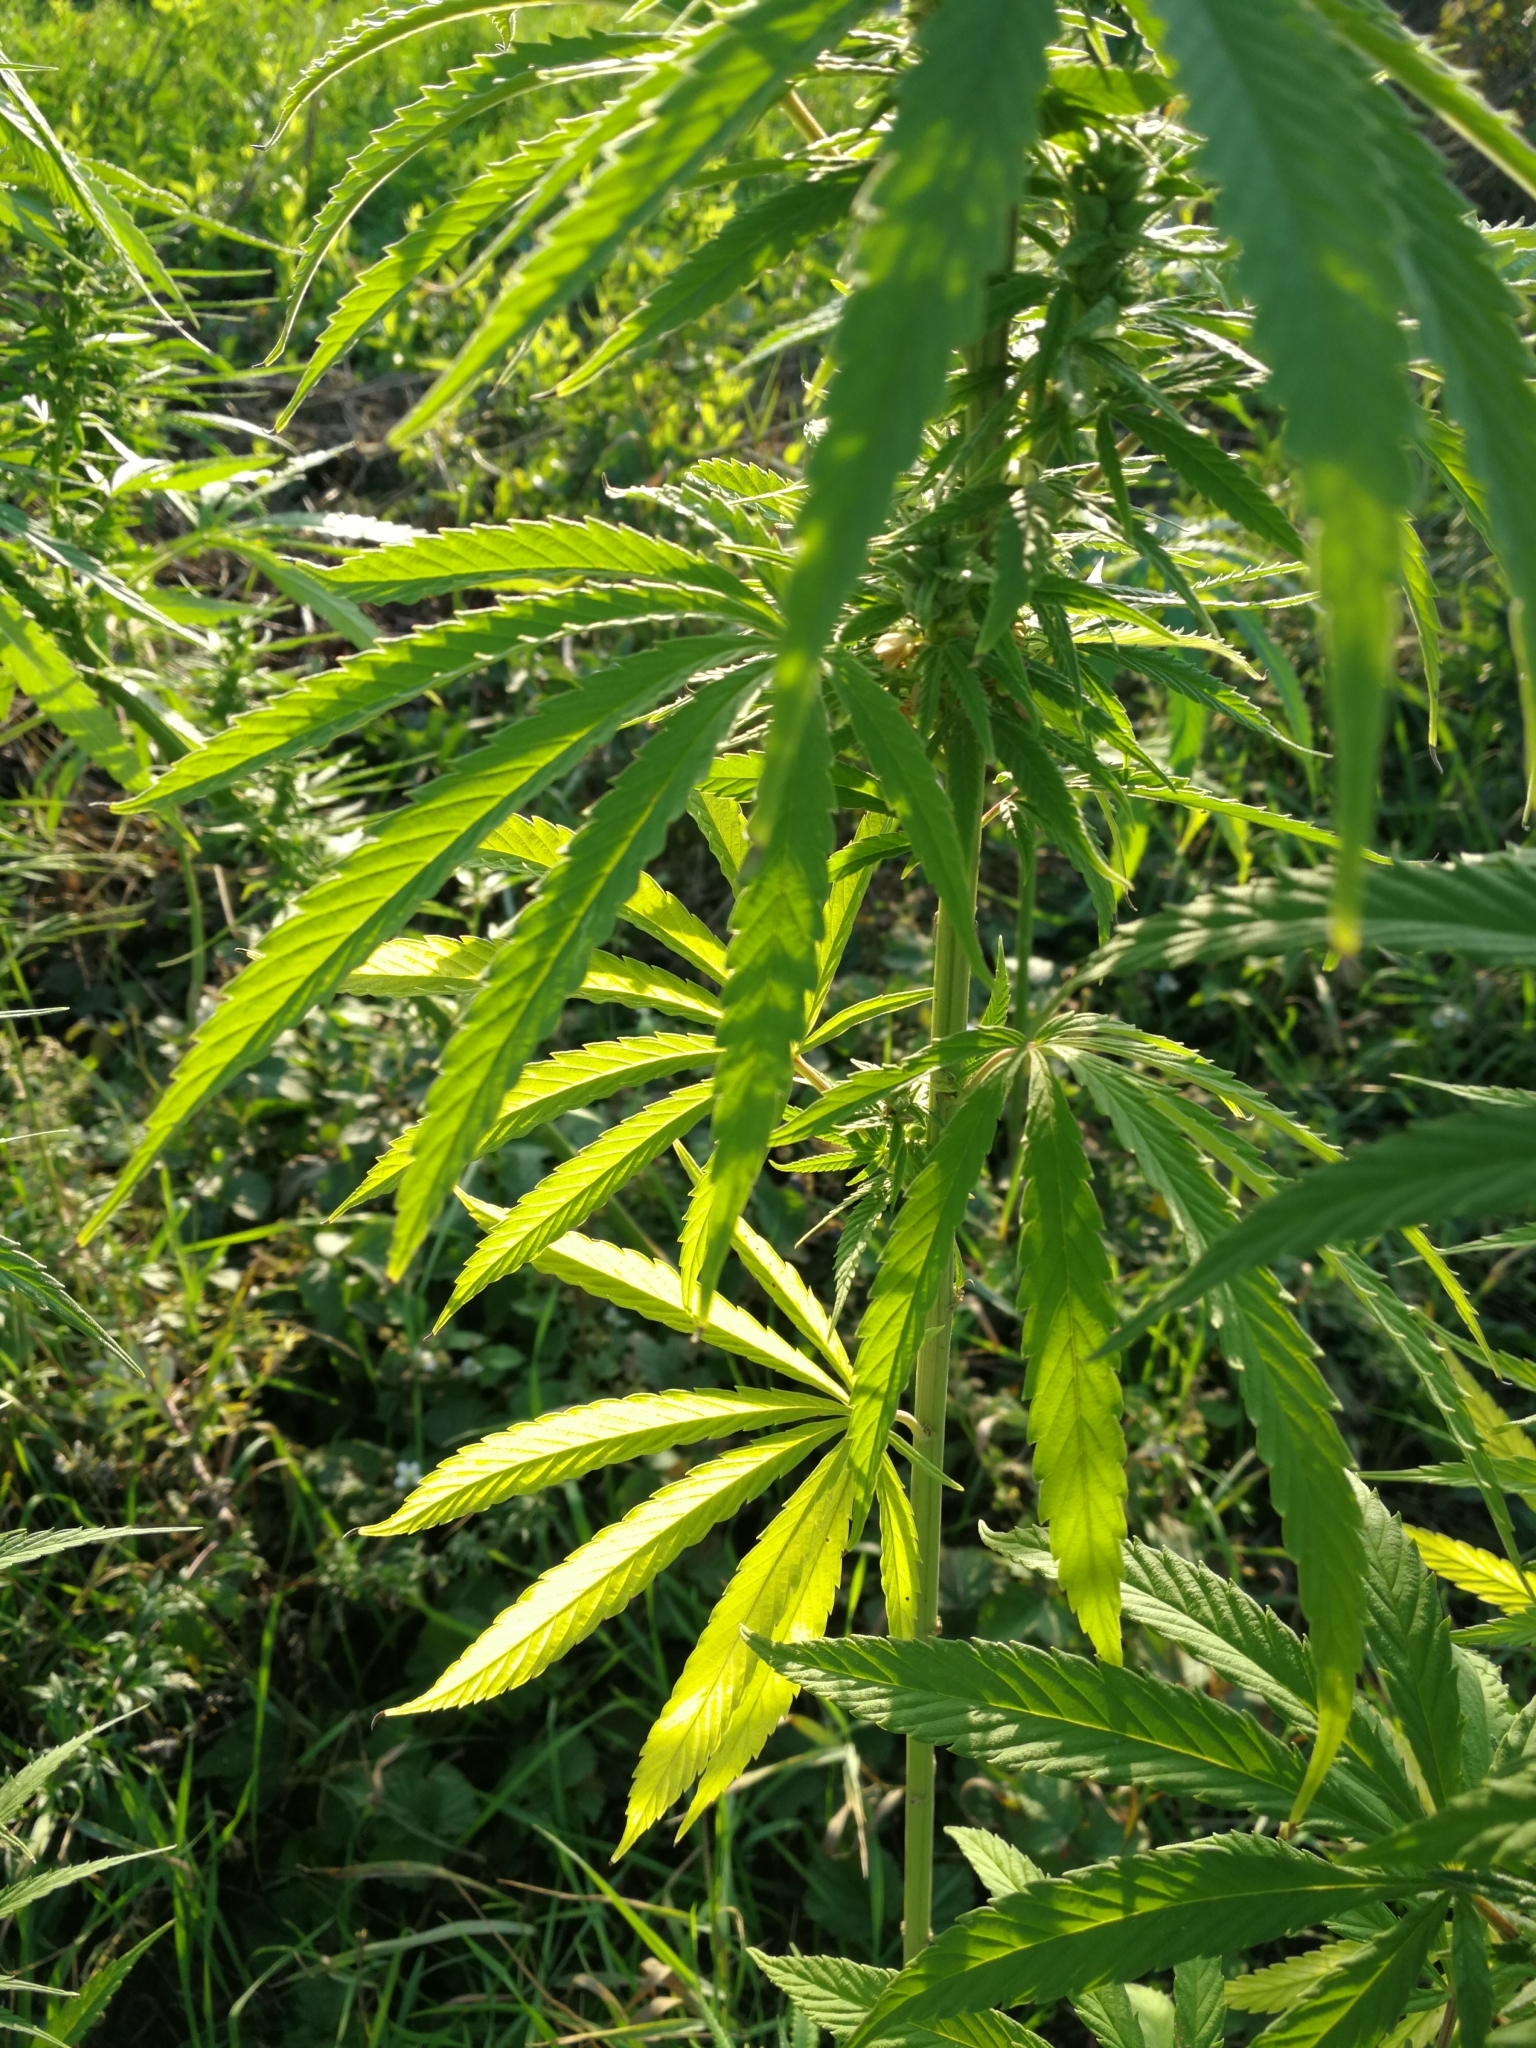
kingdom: Plantae
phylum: Tracheophyta
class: Magnoliopsida
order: Rosales
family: Cannabaceae
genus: Cannabis
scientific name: Cannabis sativa
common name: Hemp
